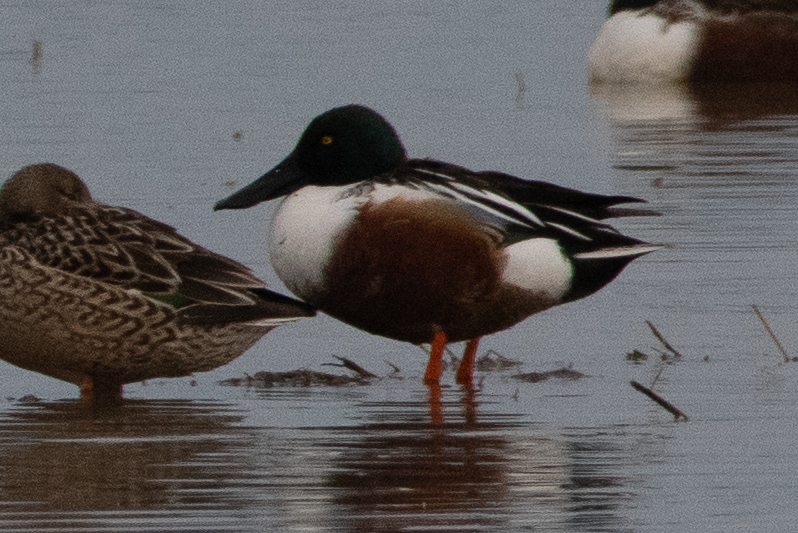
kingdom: Animalia
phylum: Chordata
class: Aves
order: Anseriformes
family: Anatidae
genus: Spatula
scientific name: Spatula clypeata
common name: Northern shoveler
